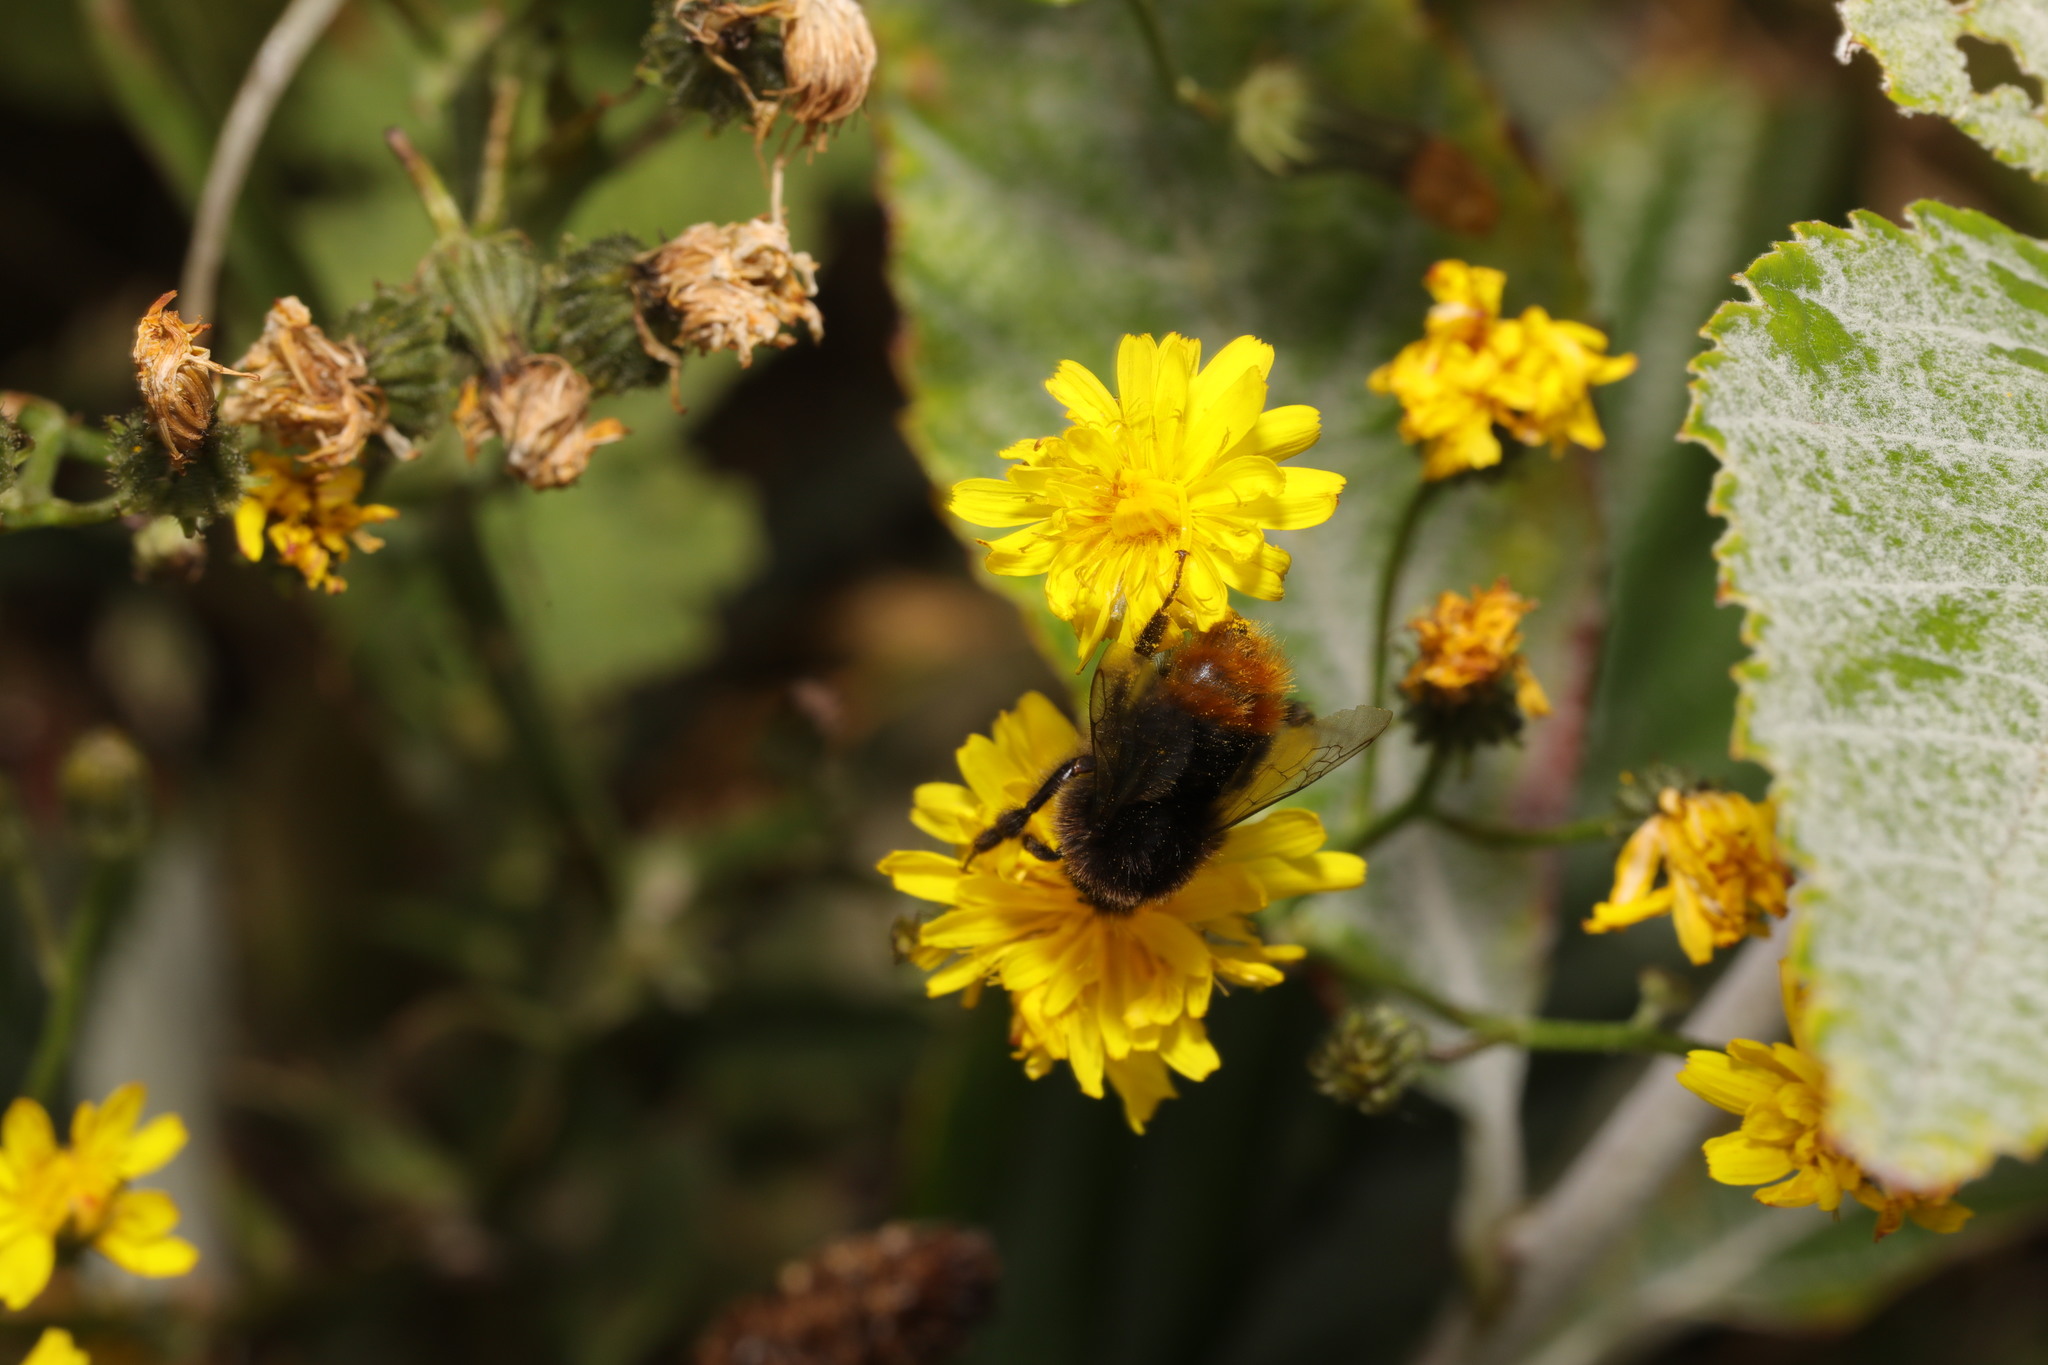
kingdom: Animalia
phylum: Arthropoda
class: Insecta
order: Hymenoptera
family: Apidae
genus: Bombus
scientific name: Bombus lapidarius
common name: Large red-tailed humble-bee
